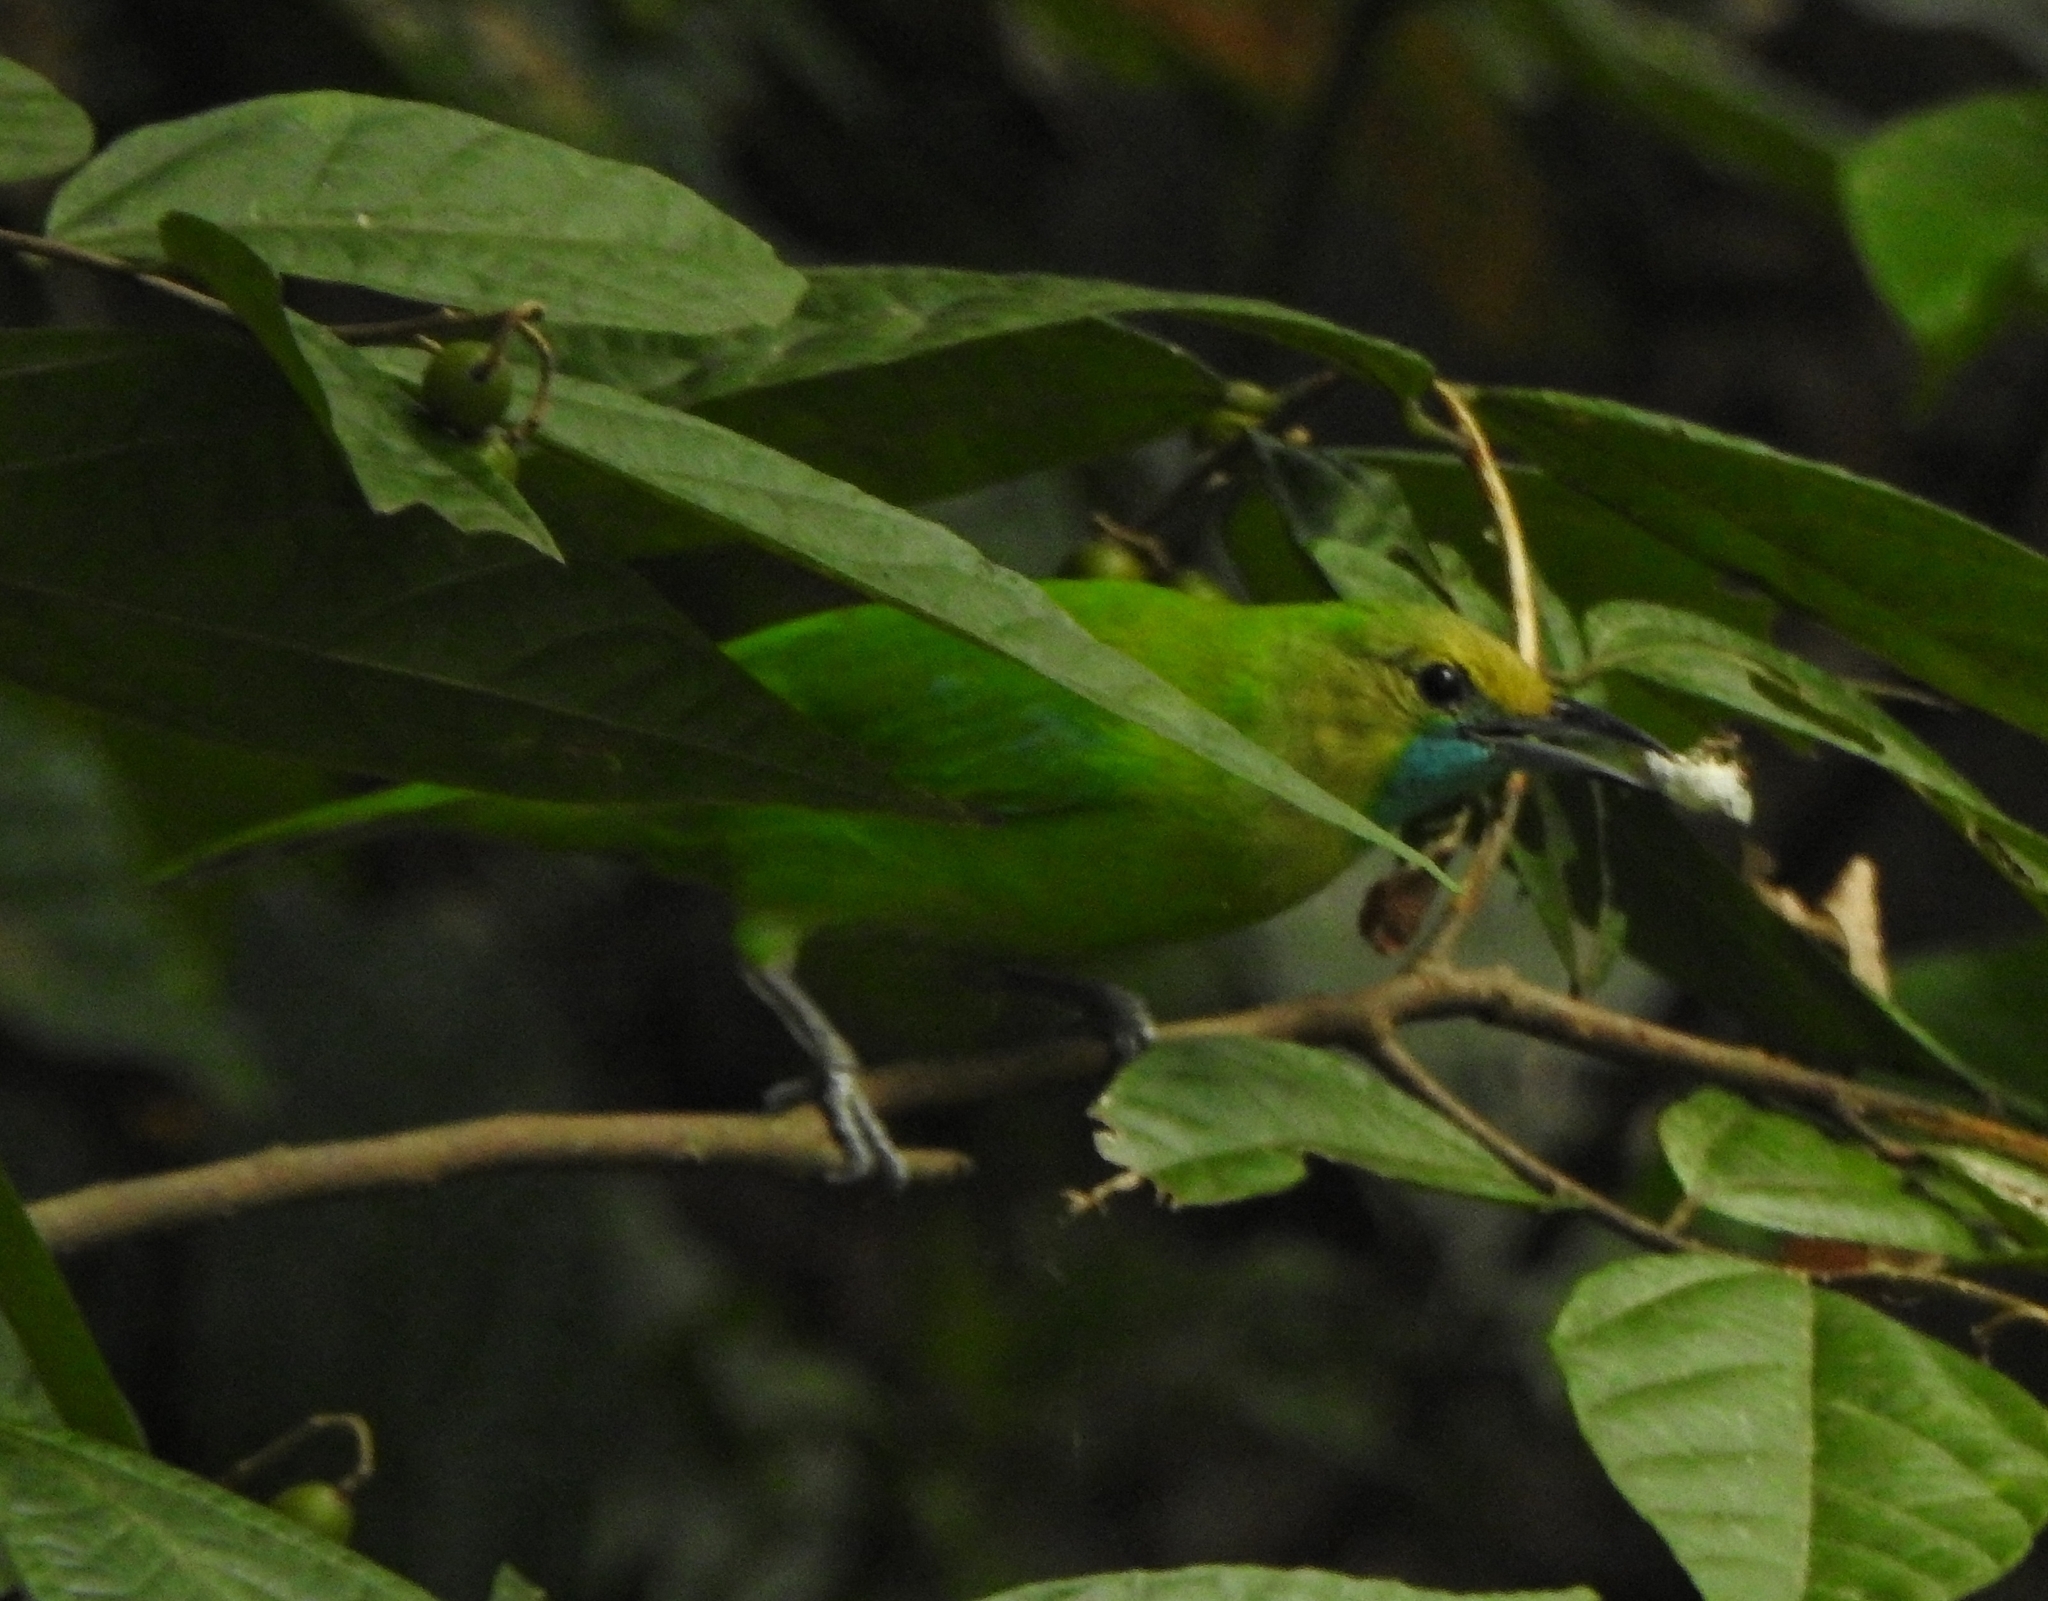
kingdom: Animalia
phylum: Chordata
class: Aves
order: Passeriformes
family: Chloropseidae
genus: Chloropsis
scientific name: Chloropsis jerdoni
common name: Jerdon's leafbird
